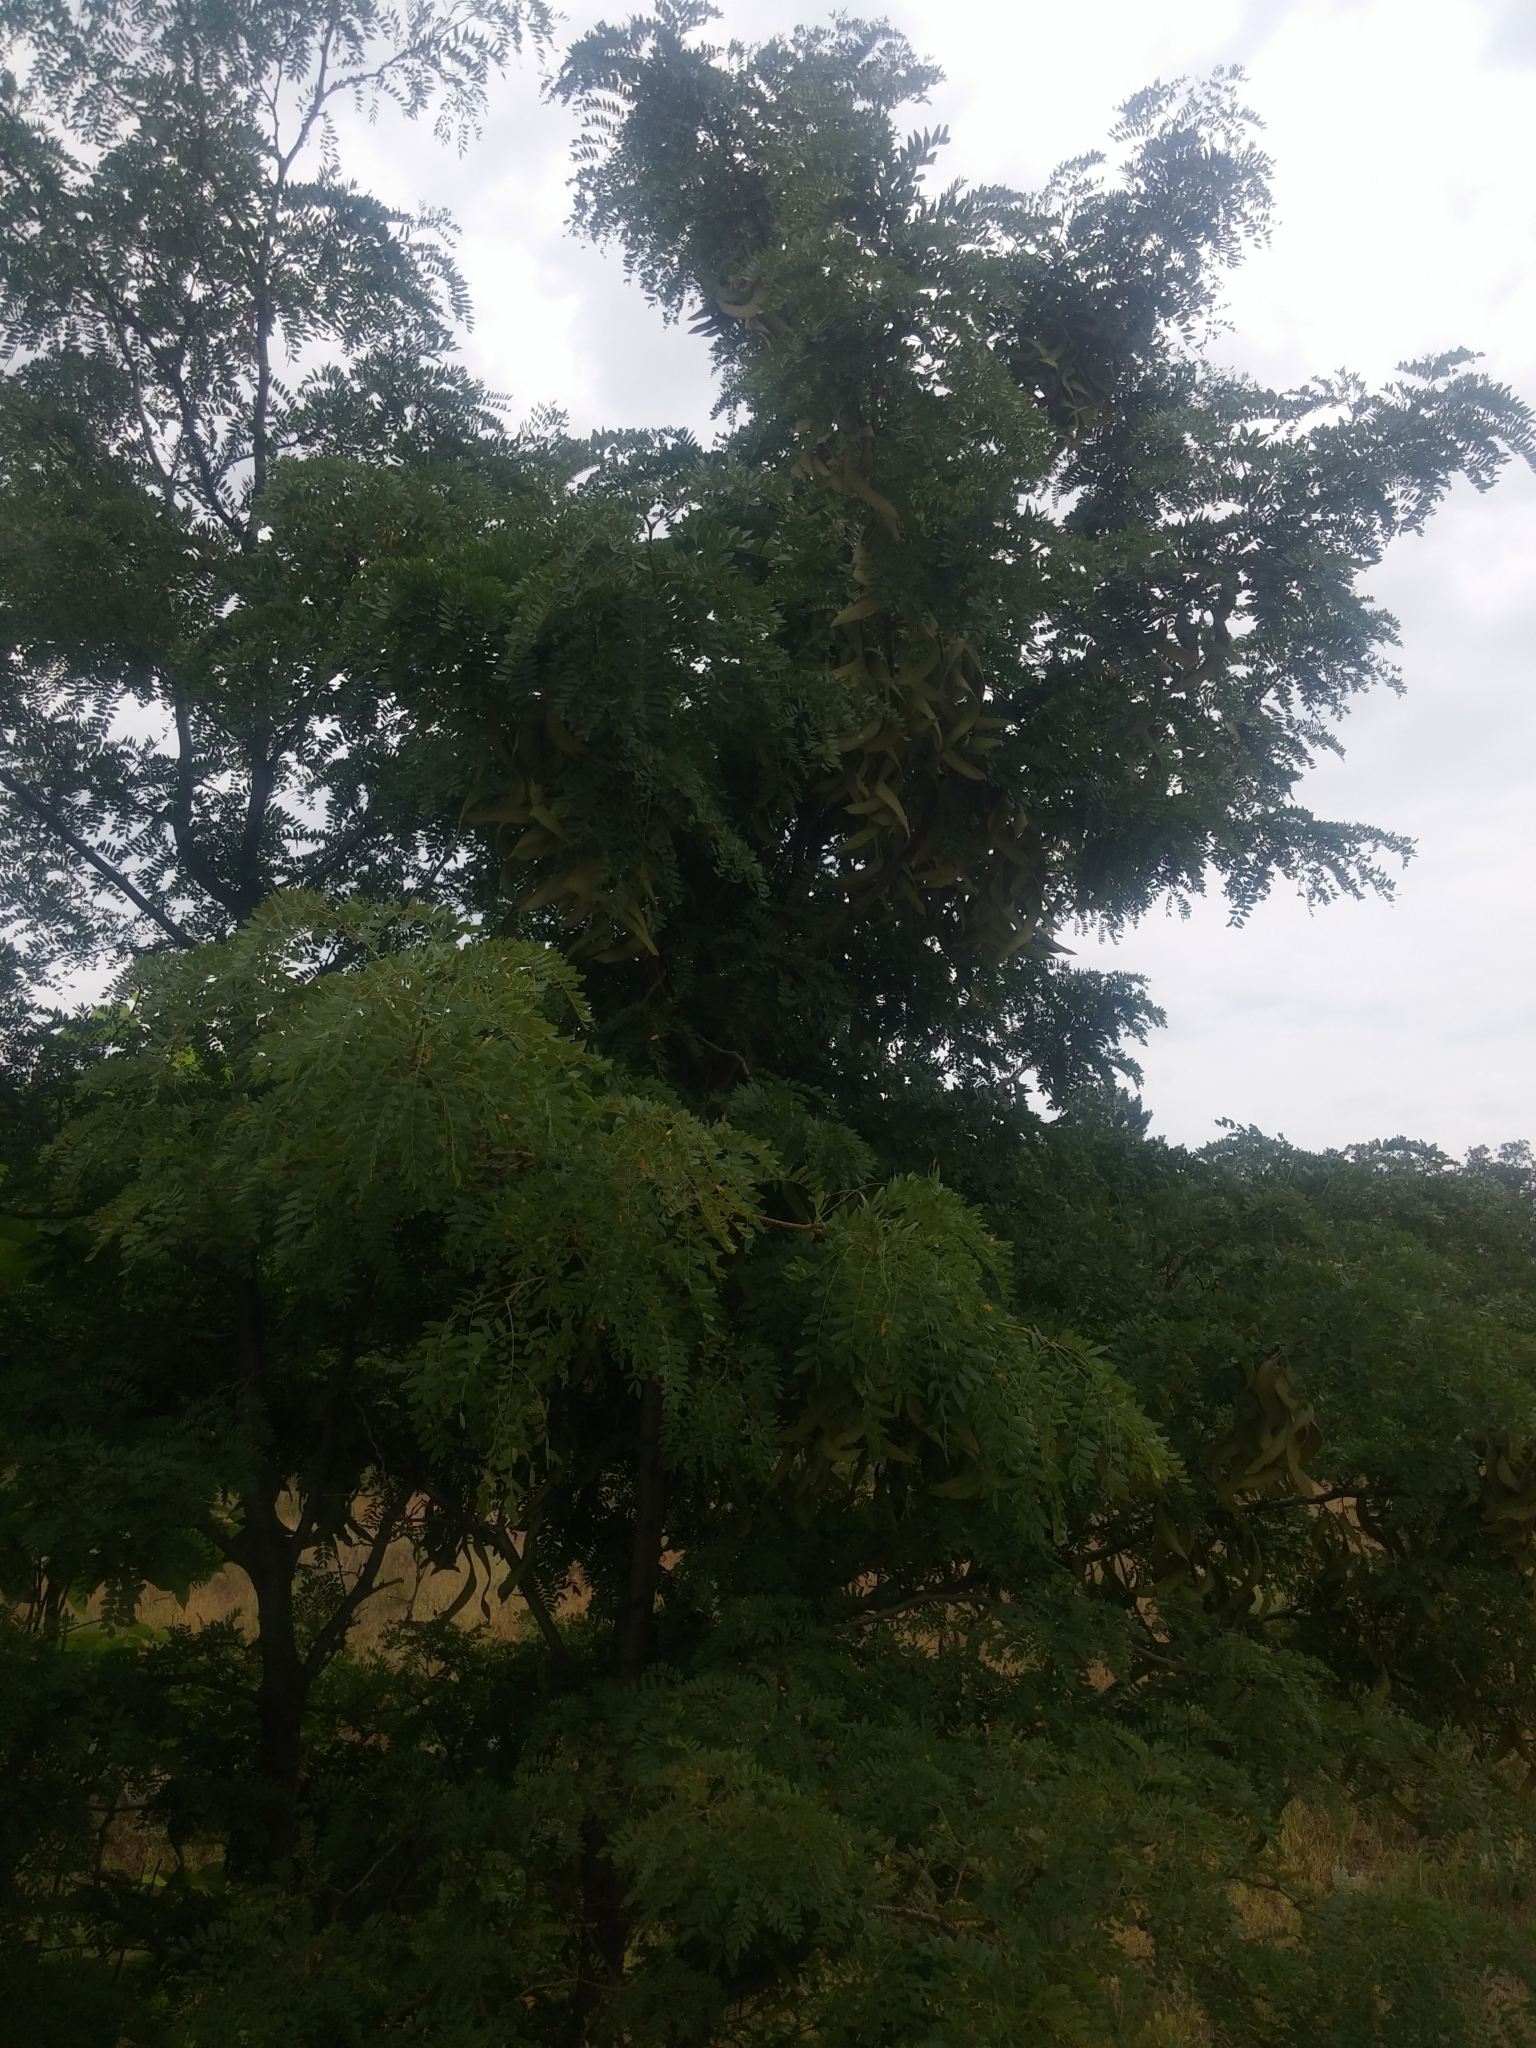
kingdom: Plantae
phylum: Tracheophyta
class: Magnoliopsida
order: Fabales
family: Fabaceae
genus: Gleditsia
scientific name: Gleditsia triacanthos
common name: Common honeylocust
